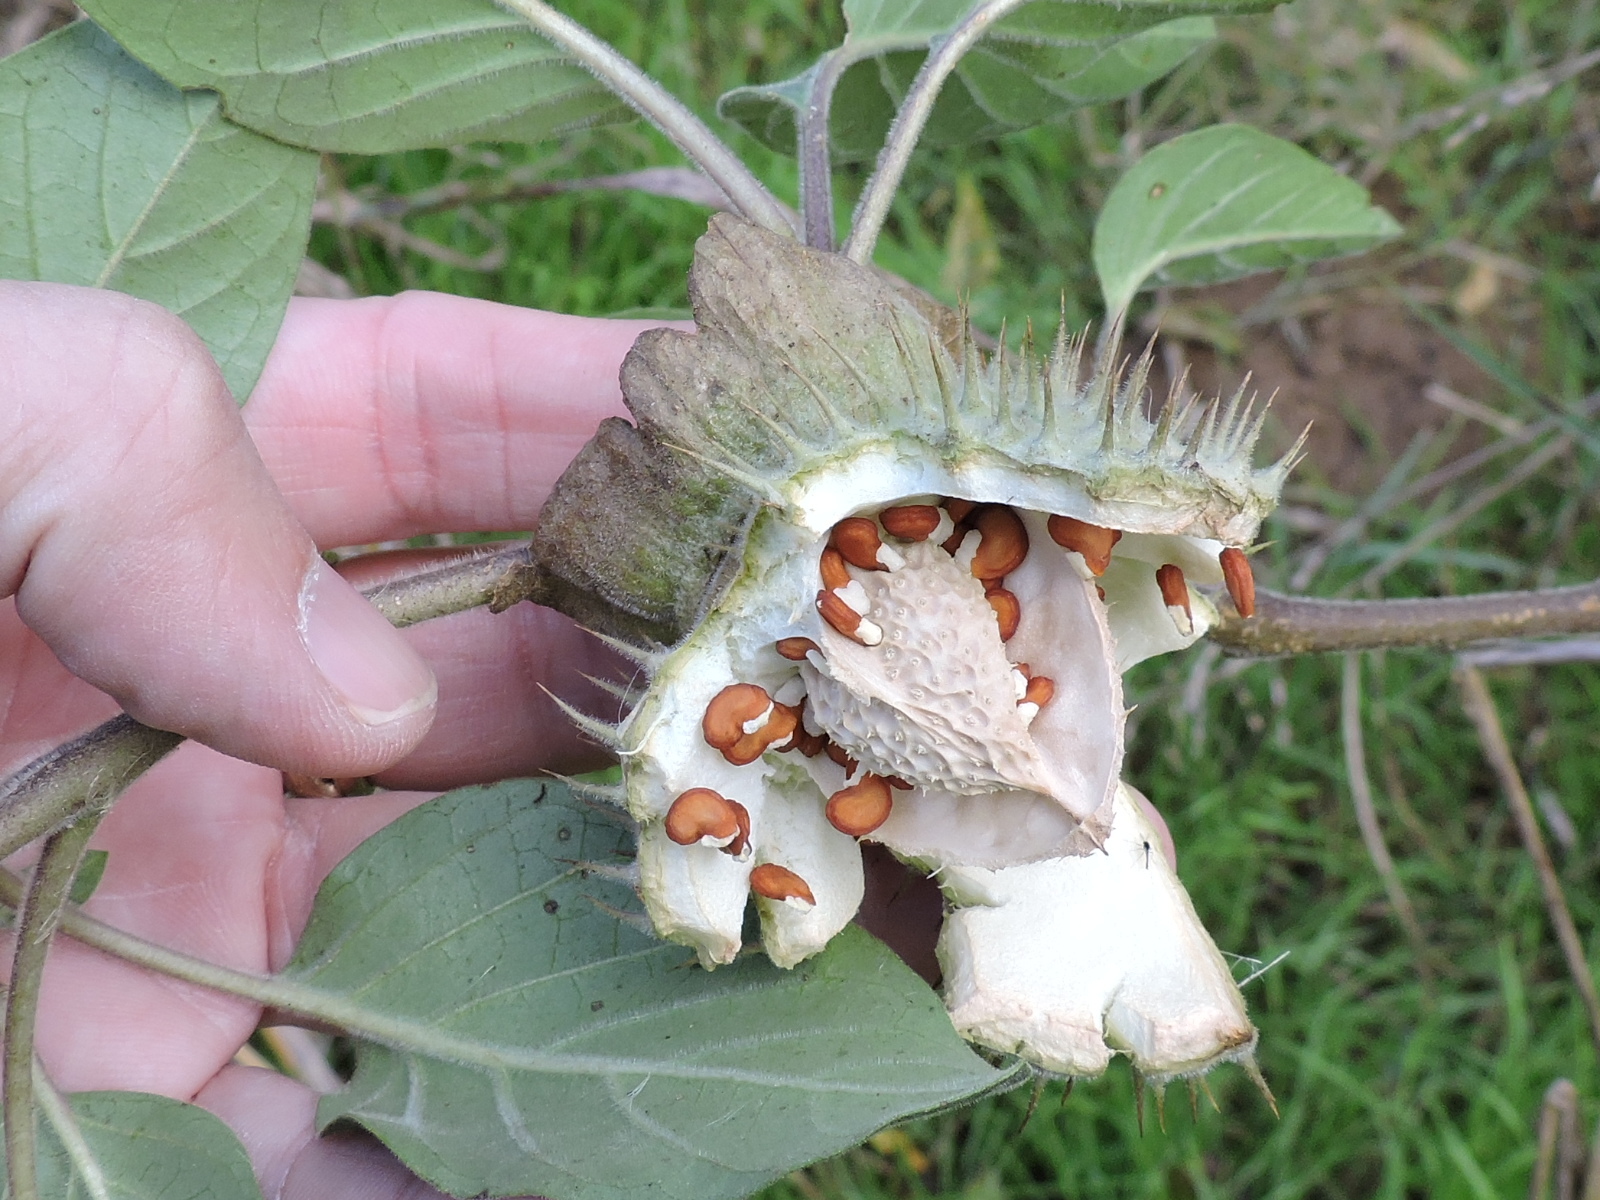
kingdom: Plantae
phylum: Tracheophyta
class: Magnoliopsida
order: Solanales
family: Solanaceae
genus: Datura
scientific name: Datura wrightii
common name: Sacred thorn-apple
